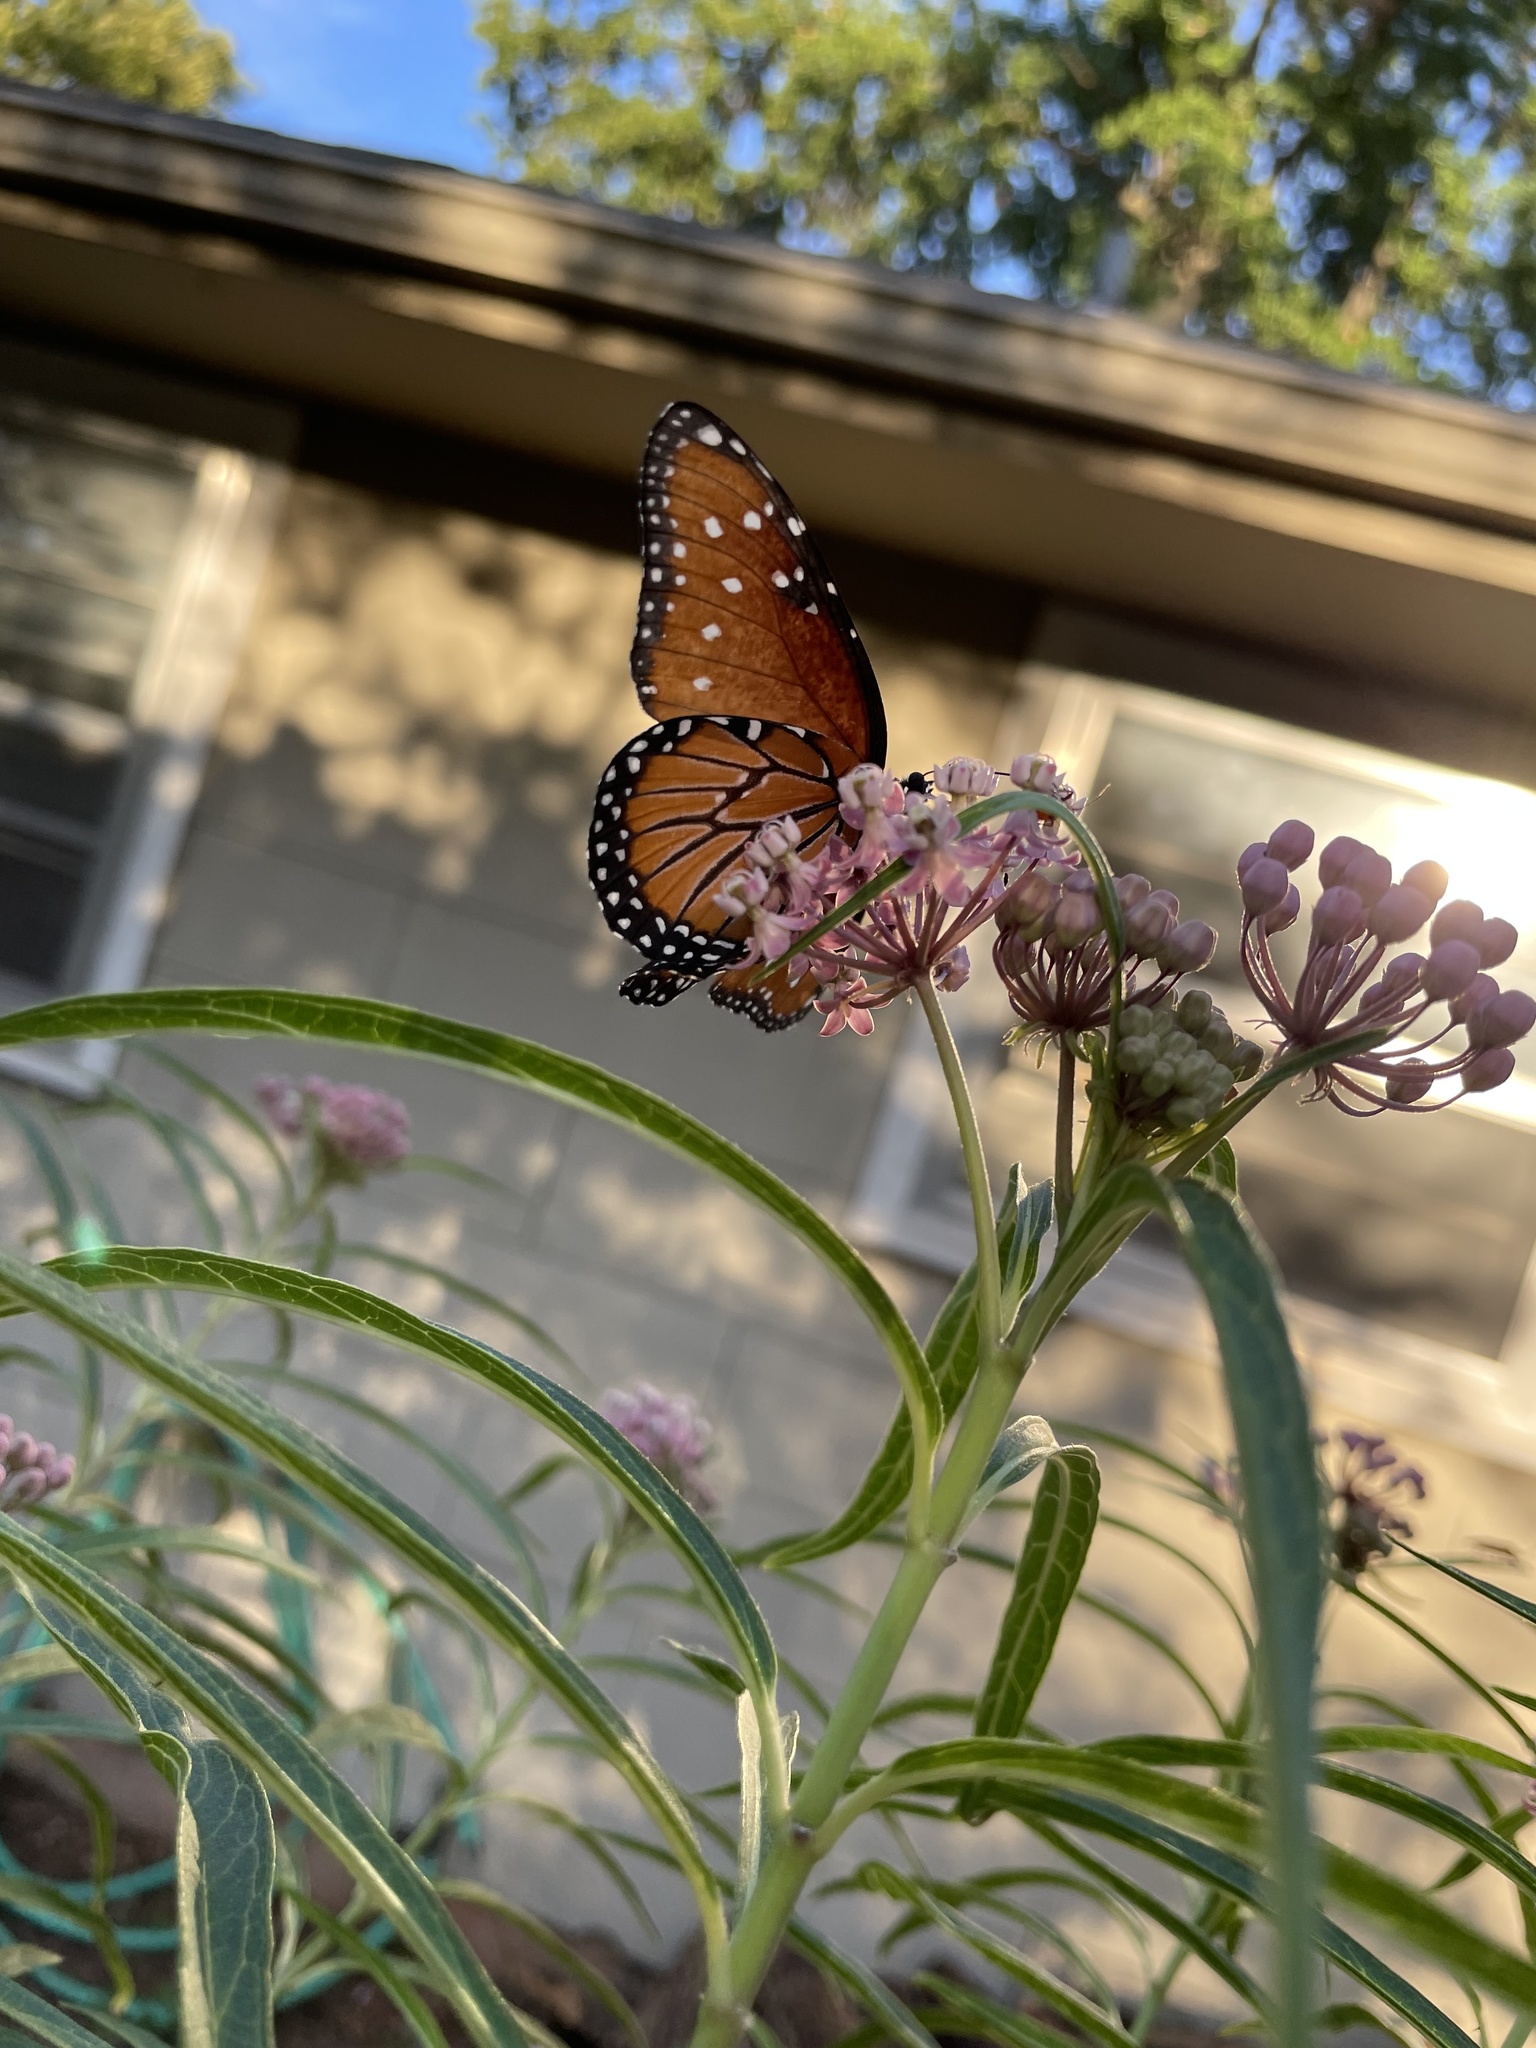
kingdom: Animalia
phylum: Arthropoda
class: Insecta
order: Lepidoptera
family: Nymphalidae
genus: Danaus
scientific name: Danaus gilippus
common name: Queen
